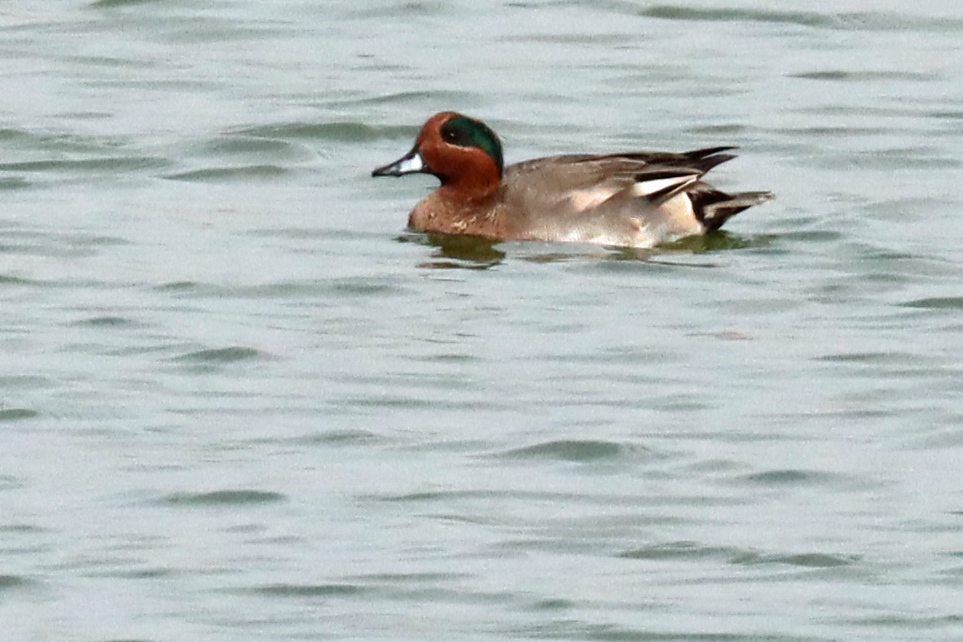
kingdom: Animalia
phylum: Chordata
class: Aves
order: Anseriformes
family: Anatidae
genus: Anas
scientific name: Anas crecca
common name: Eurasian teal
